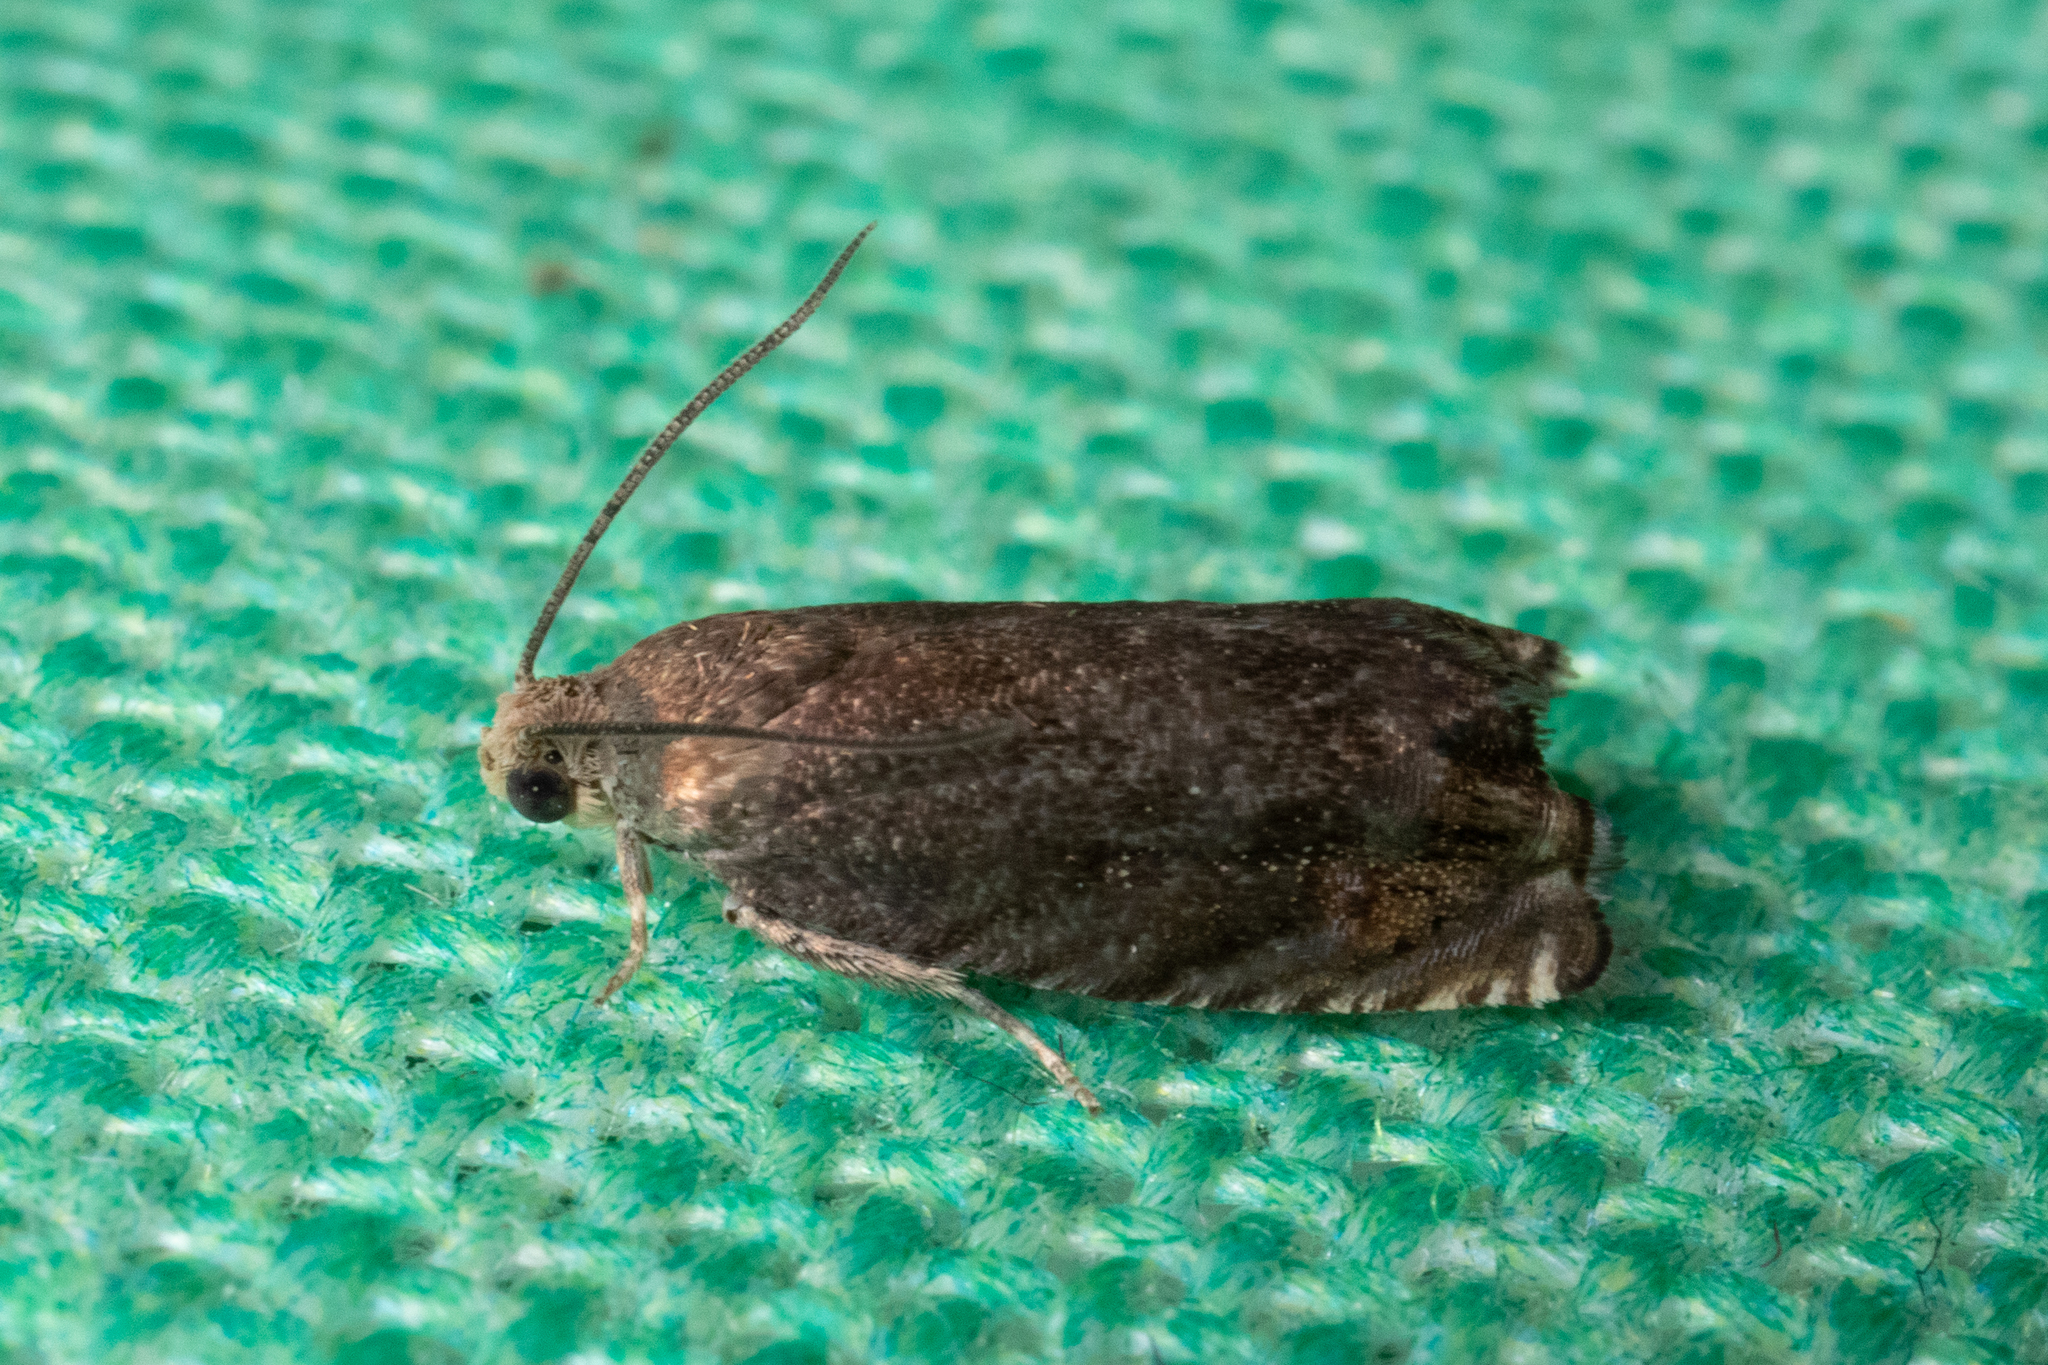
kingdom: Animalia
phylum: Arthropoda
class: Insecta
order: Lepidoptera
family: Tortricidae
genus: Cydia
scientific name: Cydia caryana
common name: Hickory shuckworm moth
